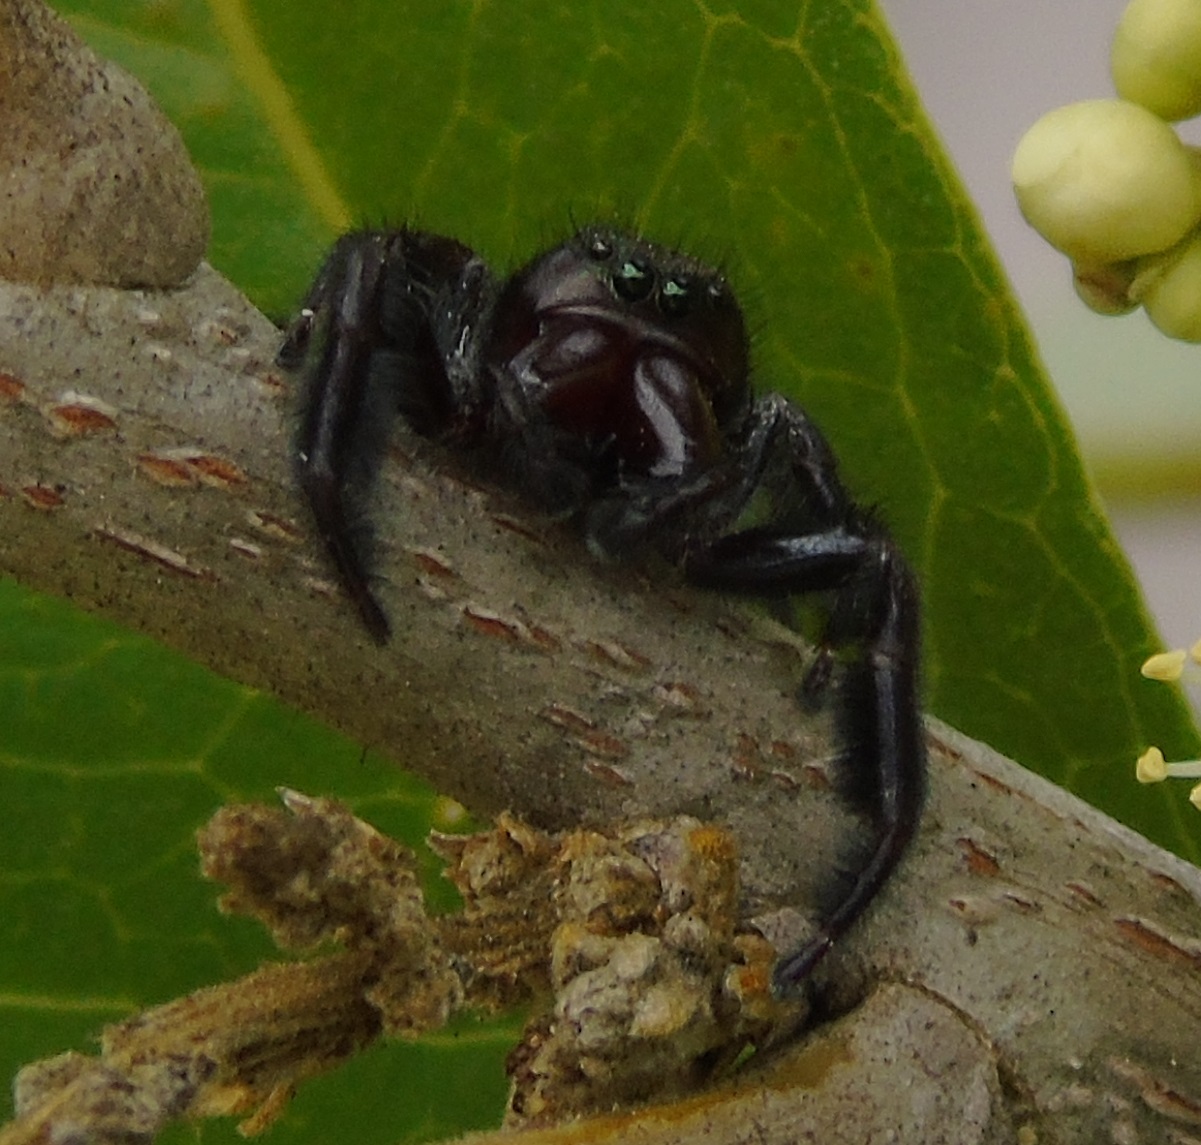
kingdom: Animalia
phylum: Arthropoda
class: Arachnida
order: Araneae
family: Salticidae
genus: Paraphidippus
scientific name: Paraphidippus
